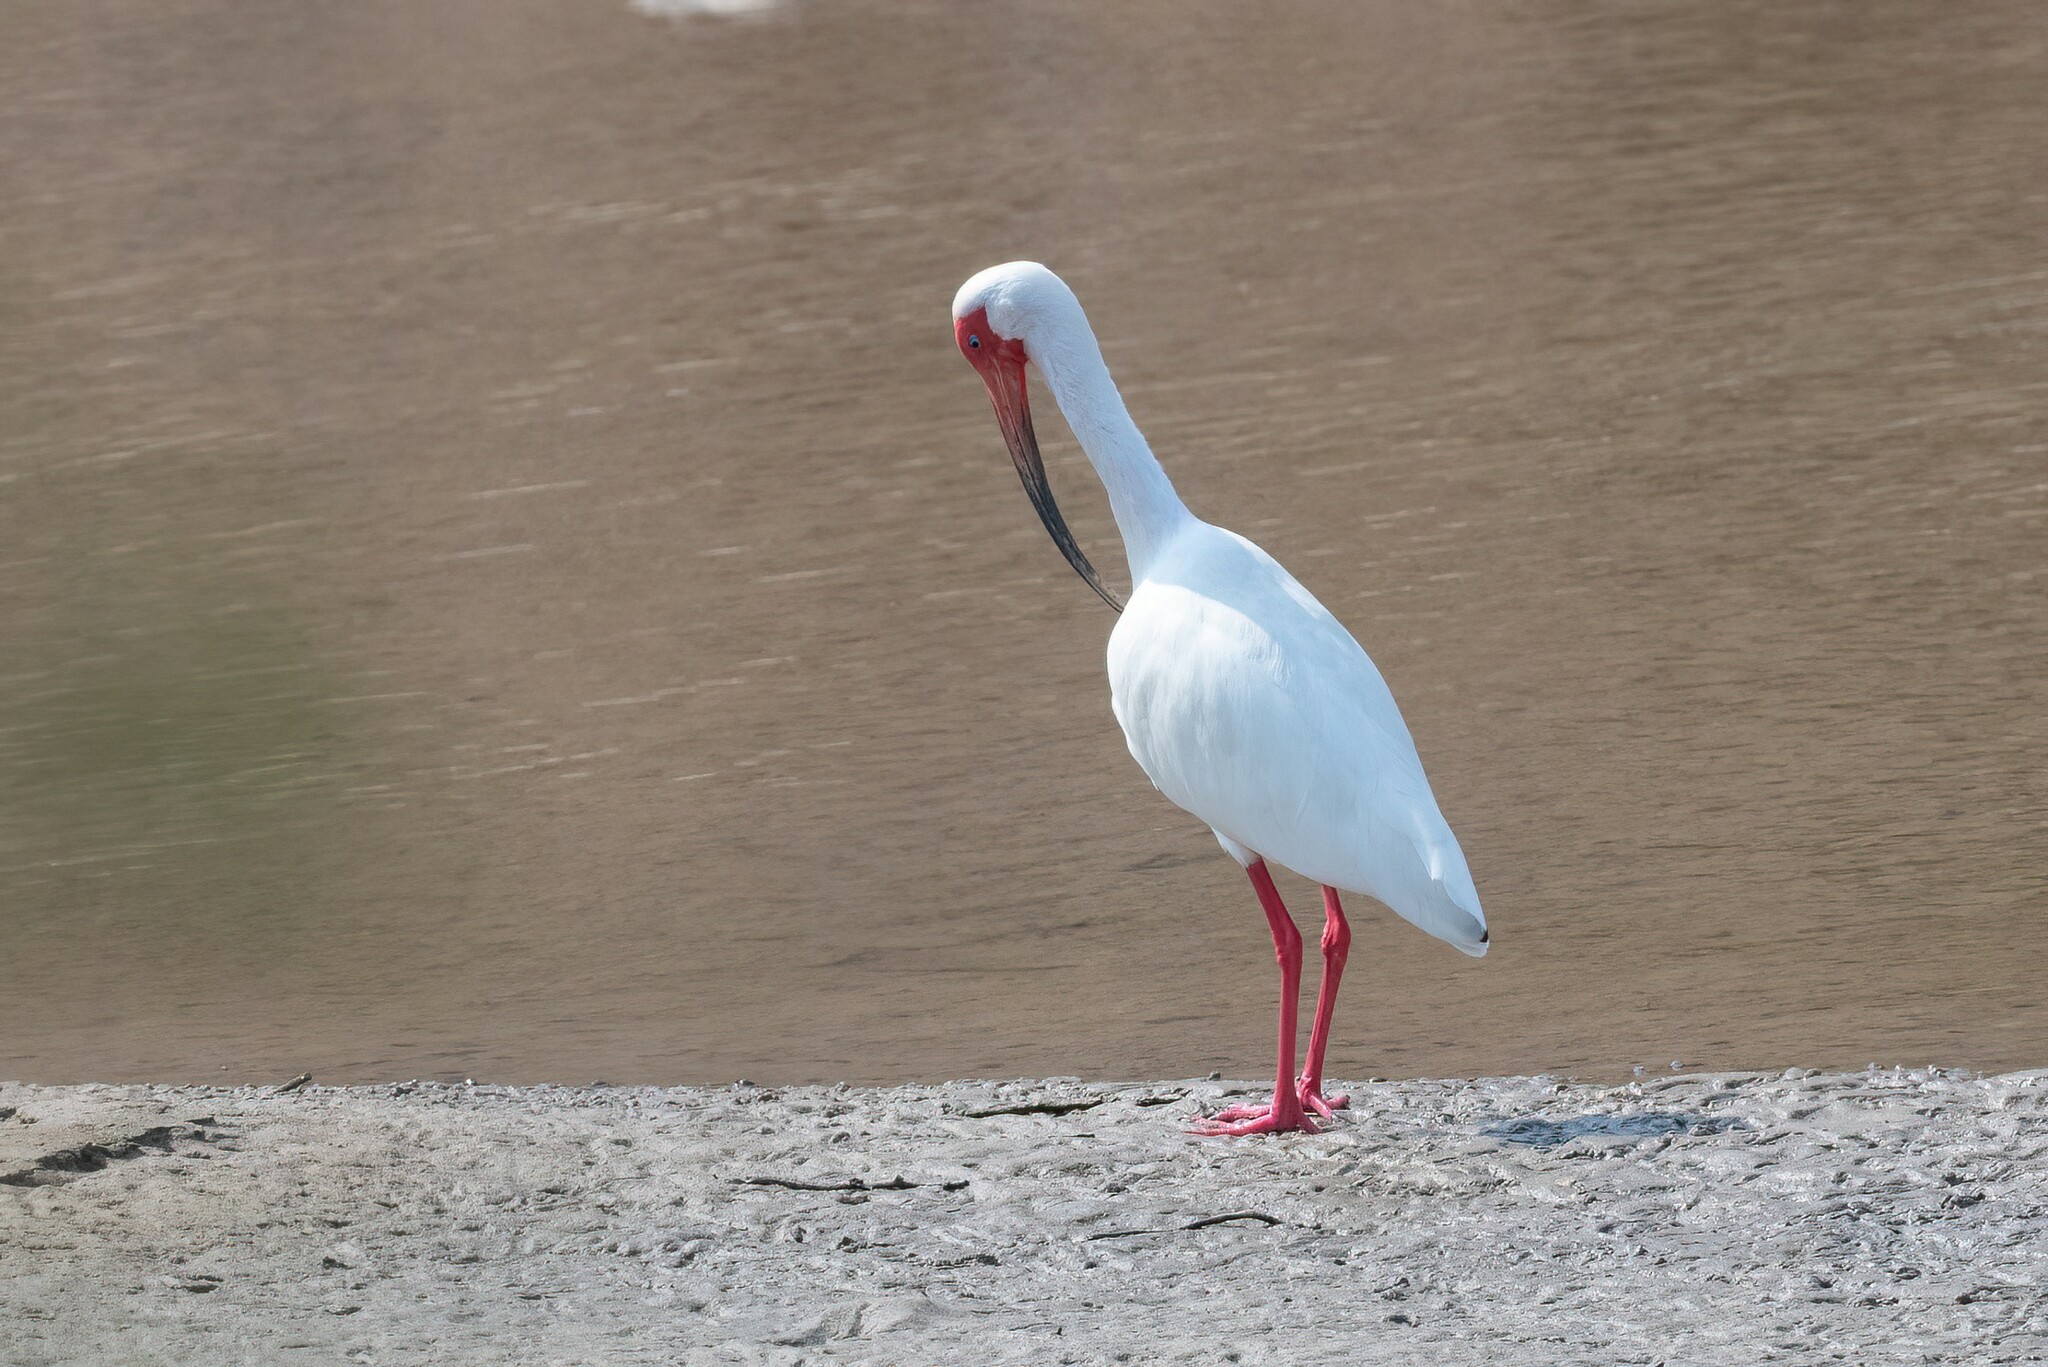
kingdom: Animalia
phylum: Chordata
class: Aves
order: Pelecaniformes
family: Threskiornithidae
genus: Eudocimus
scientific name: Eudocimus albus
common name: White ibis
